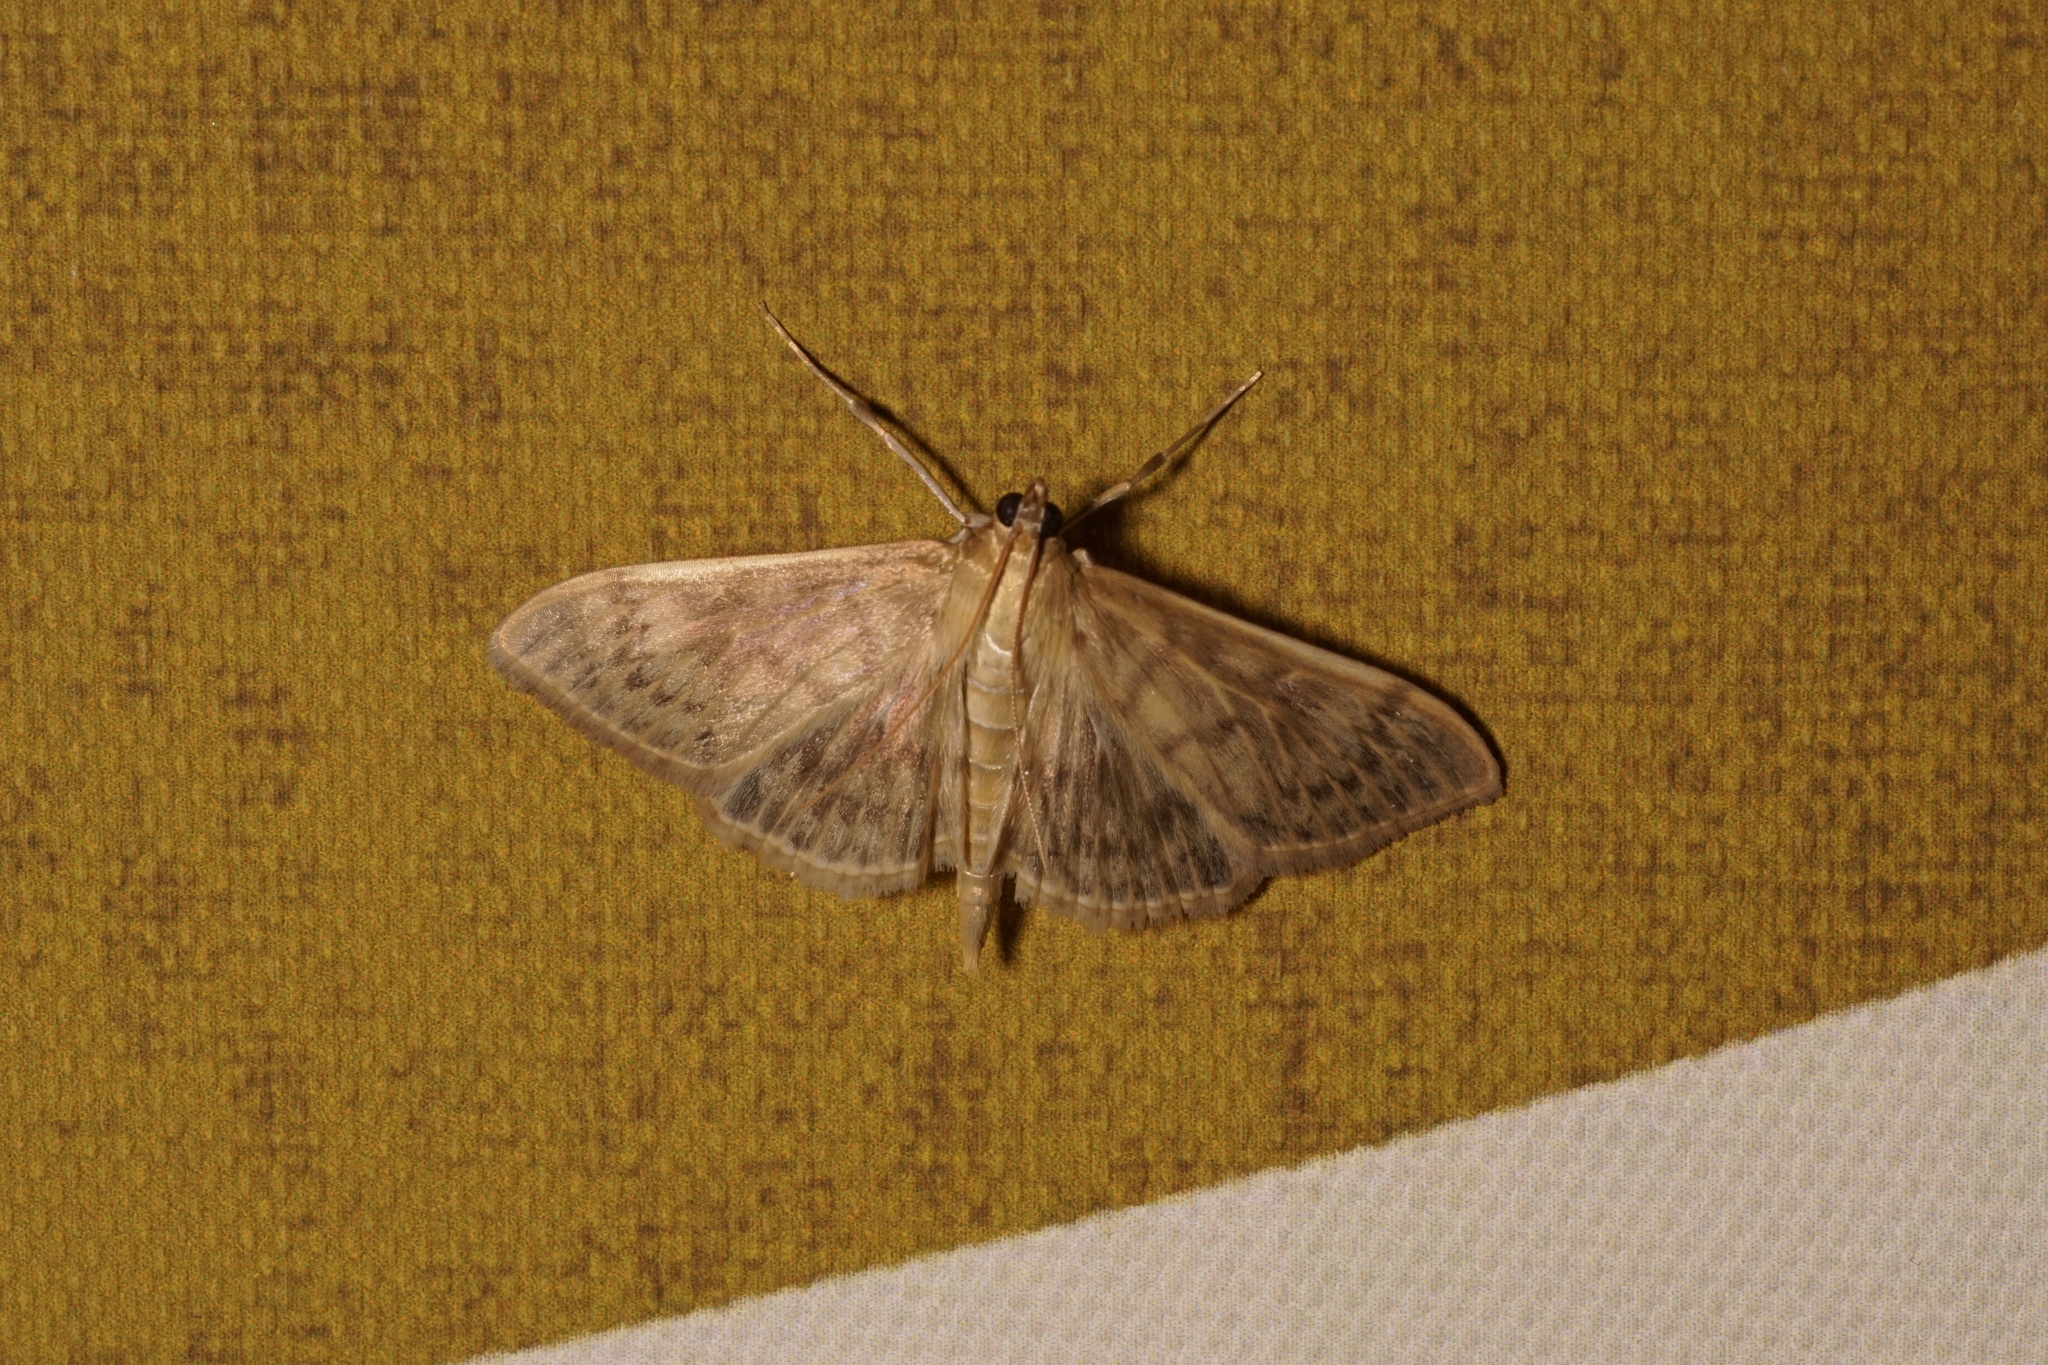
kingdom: Animalia
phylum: Arthropoda
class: Insecta
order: Lepidoptera
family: Crambidae
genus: Patania
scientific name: Patania ruralis
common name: Mother of pearl
